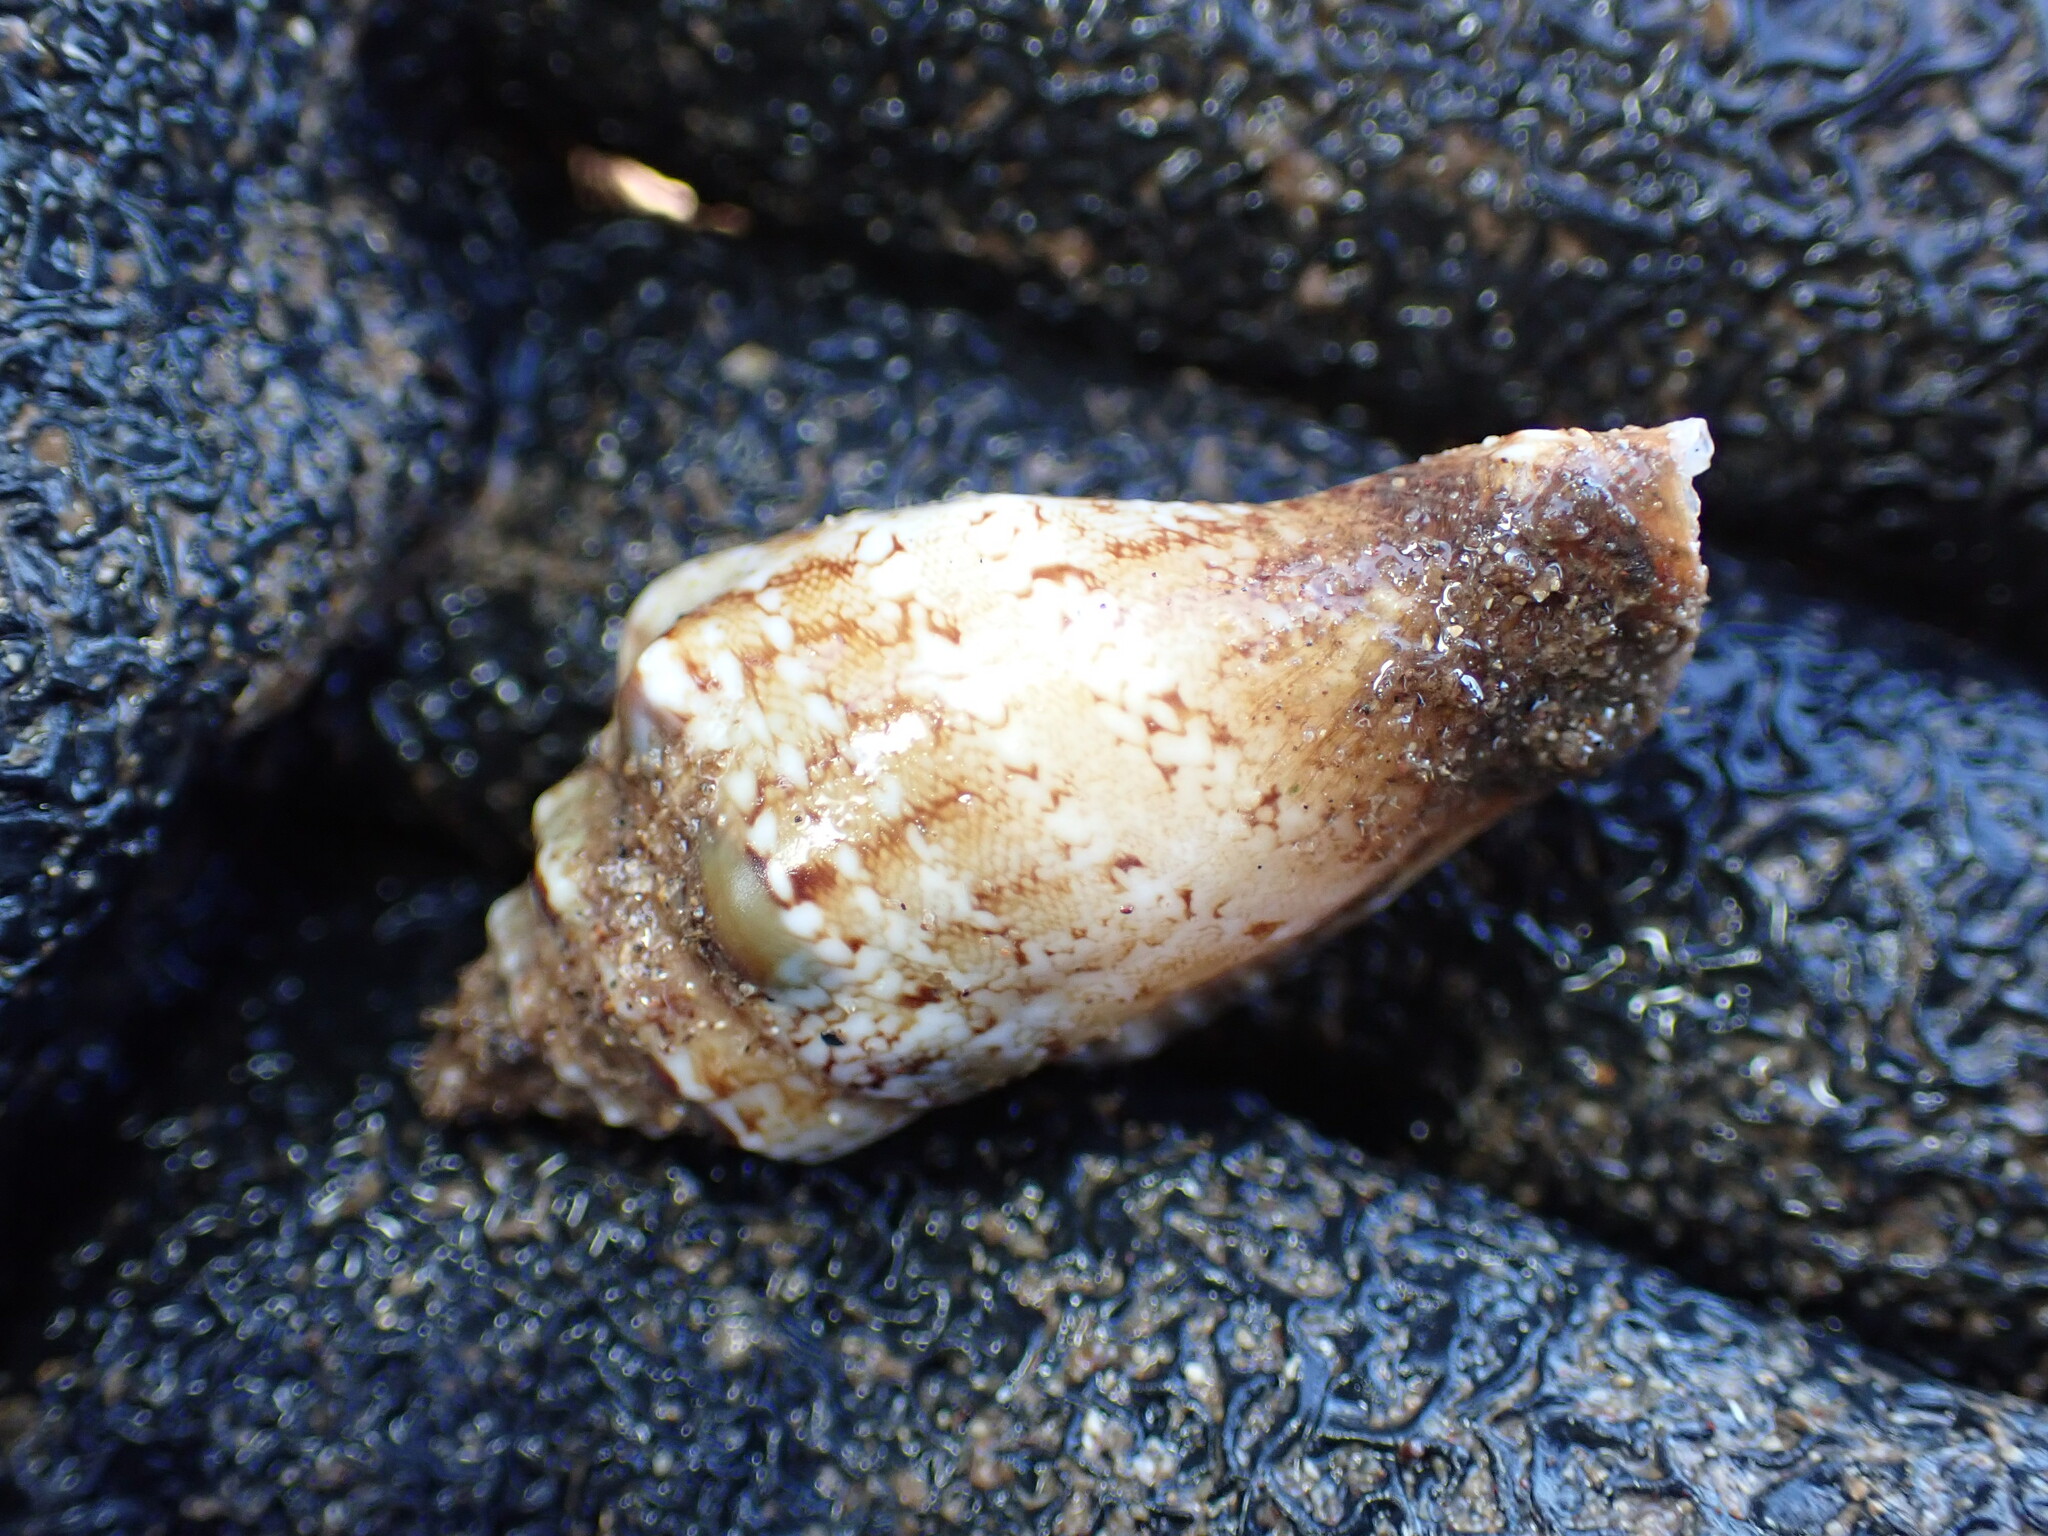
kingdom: Animalia
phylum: Mollusca
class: Gastropoda
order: Littorinimorpha
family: Strombidae
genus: Canarium
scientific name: Canarium mutabile
